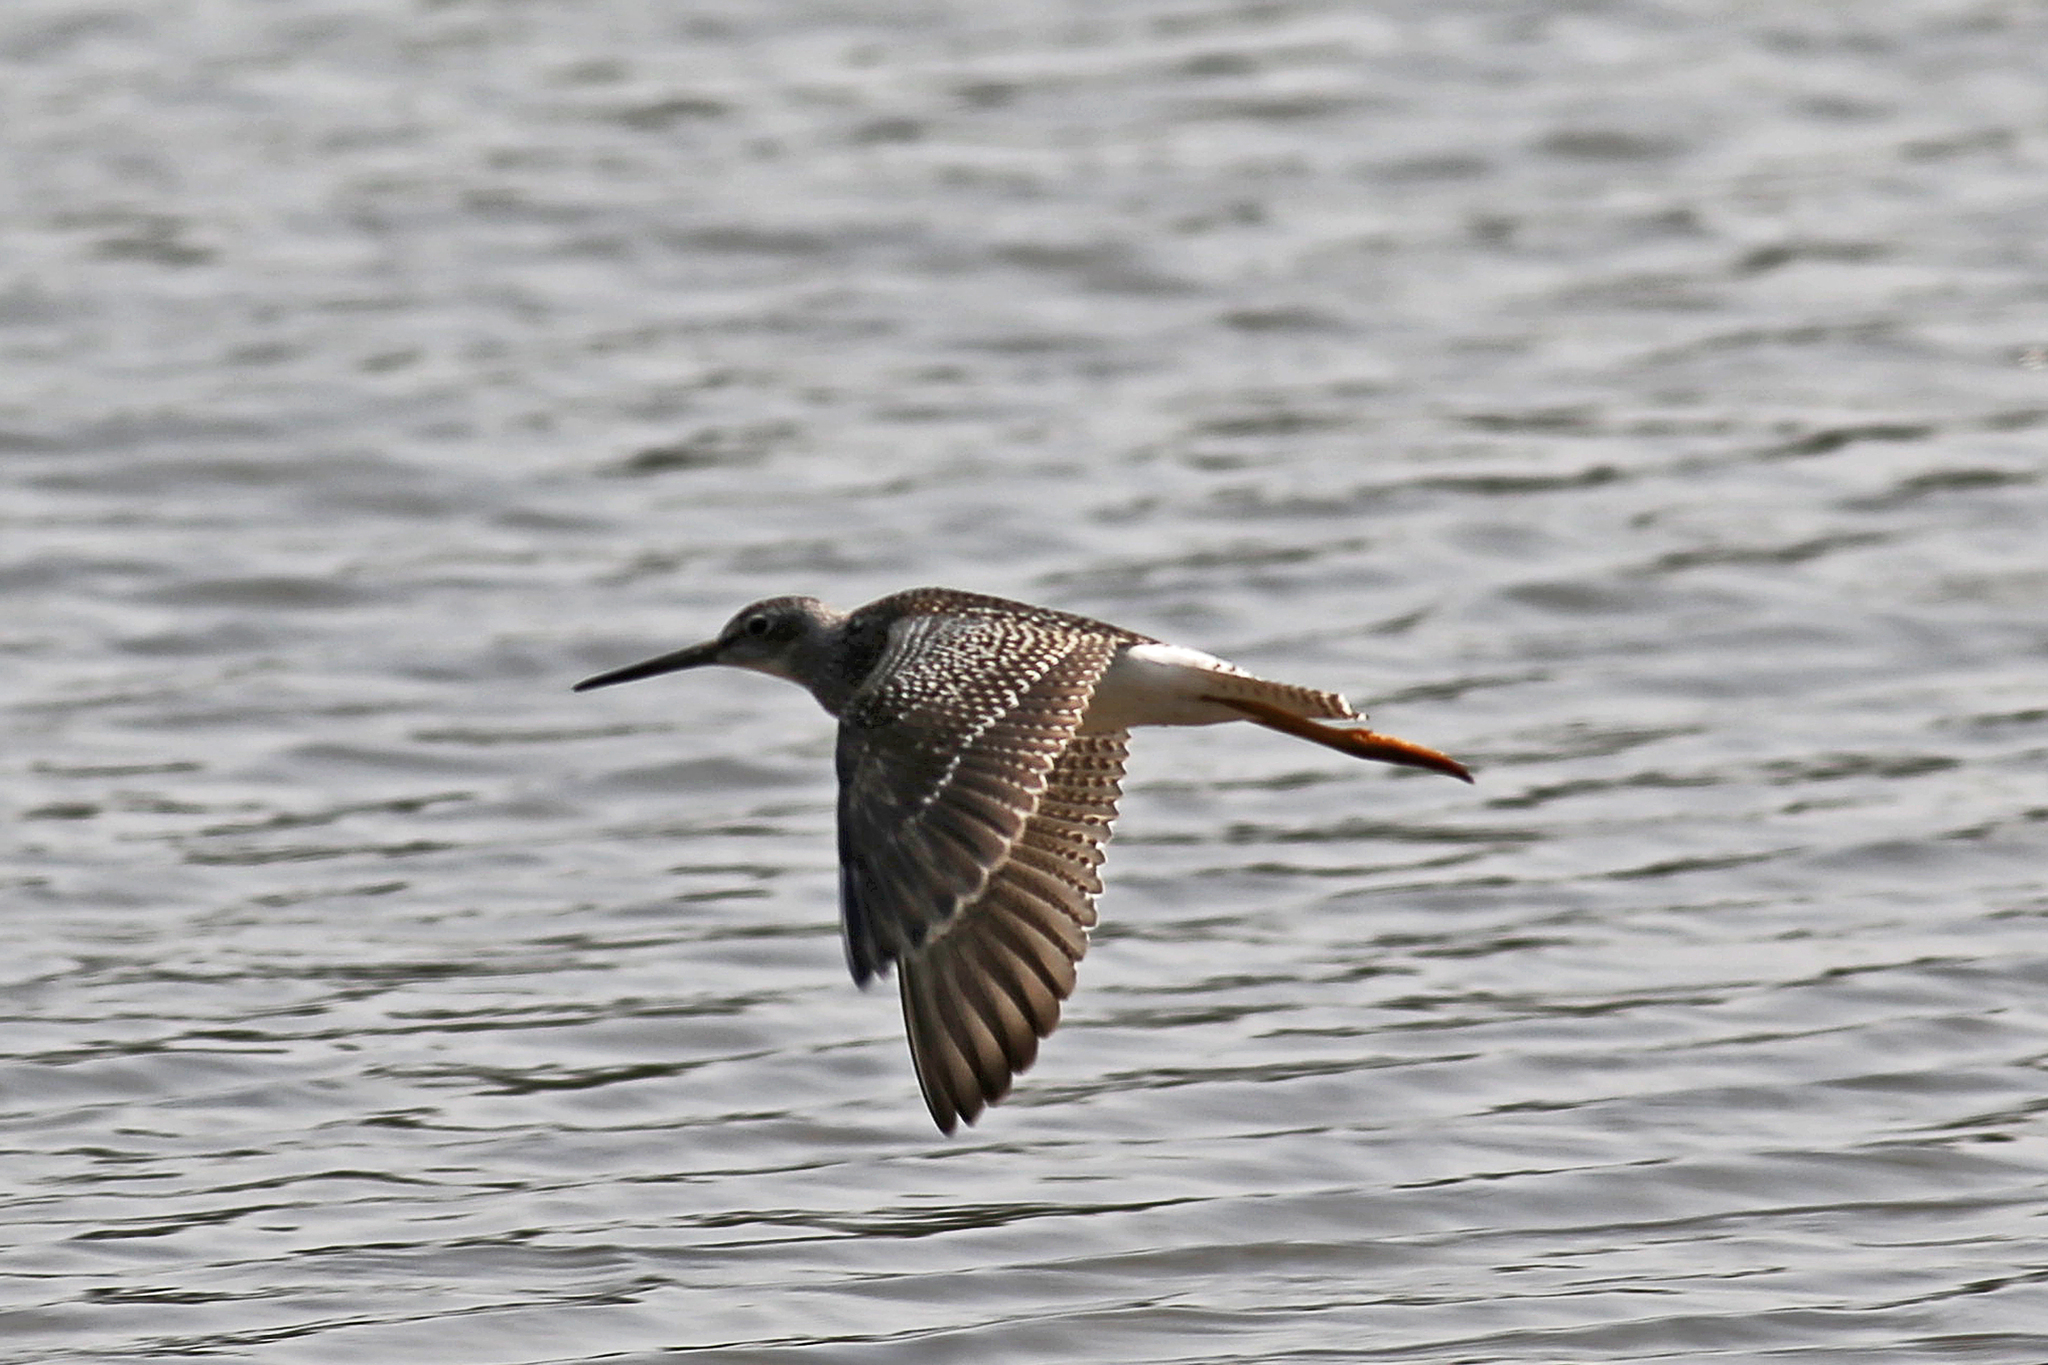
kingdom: Animalia
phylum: Chordata
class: Aves
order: Charadriiformes
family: Scolopacidae
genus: Tringa
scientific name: Tringa melanoleuca
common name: Greater yellowlegs
